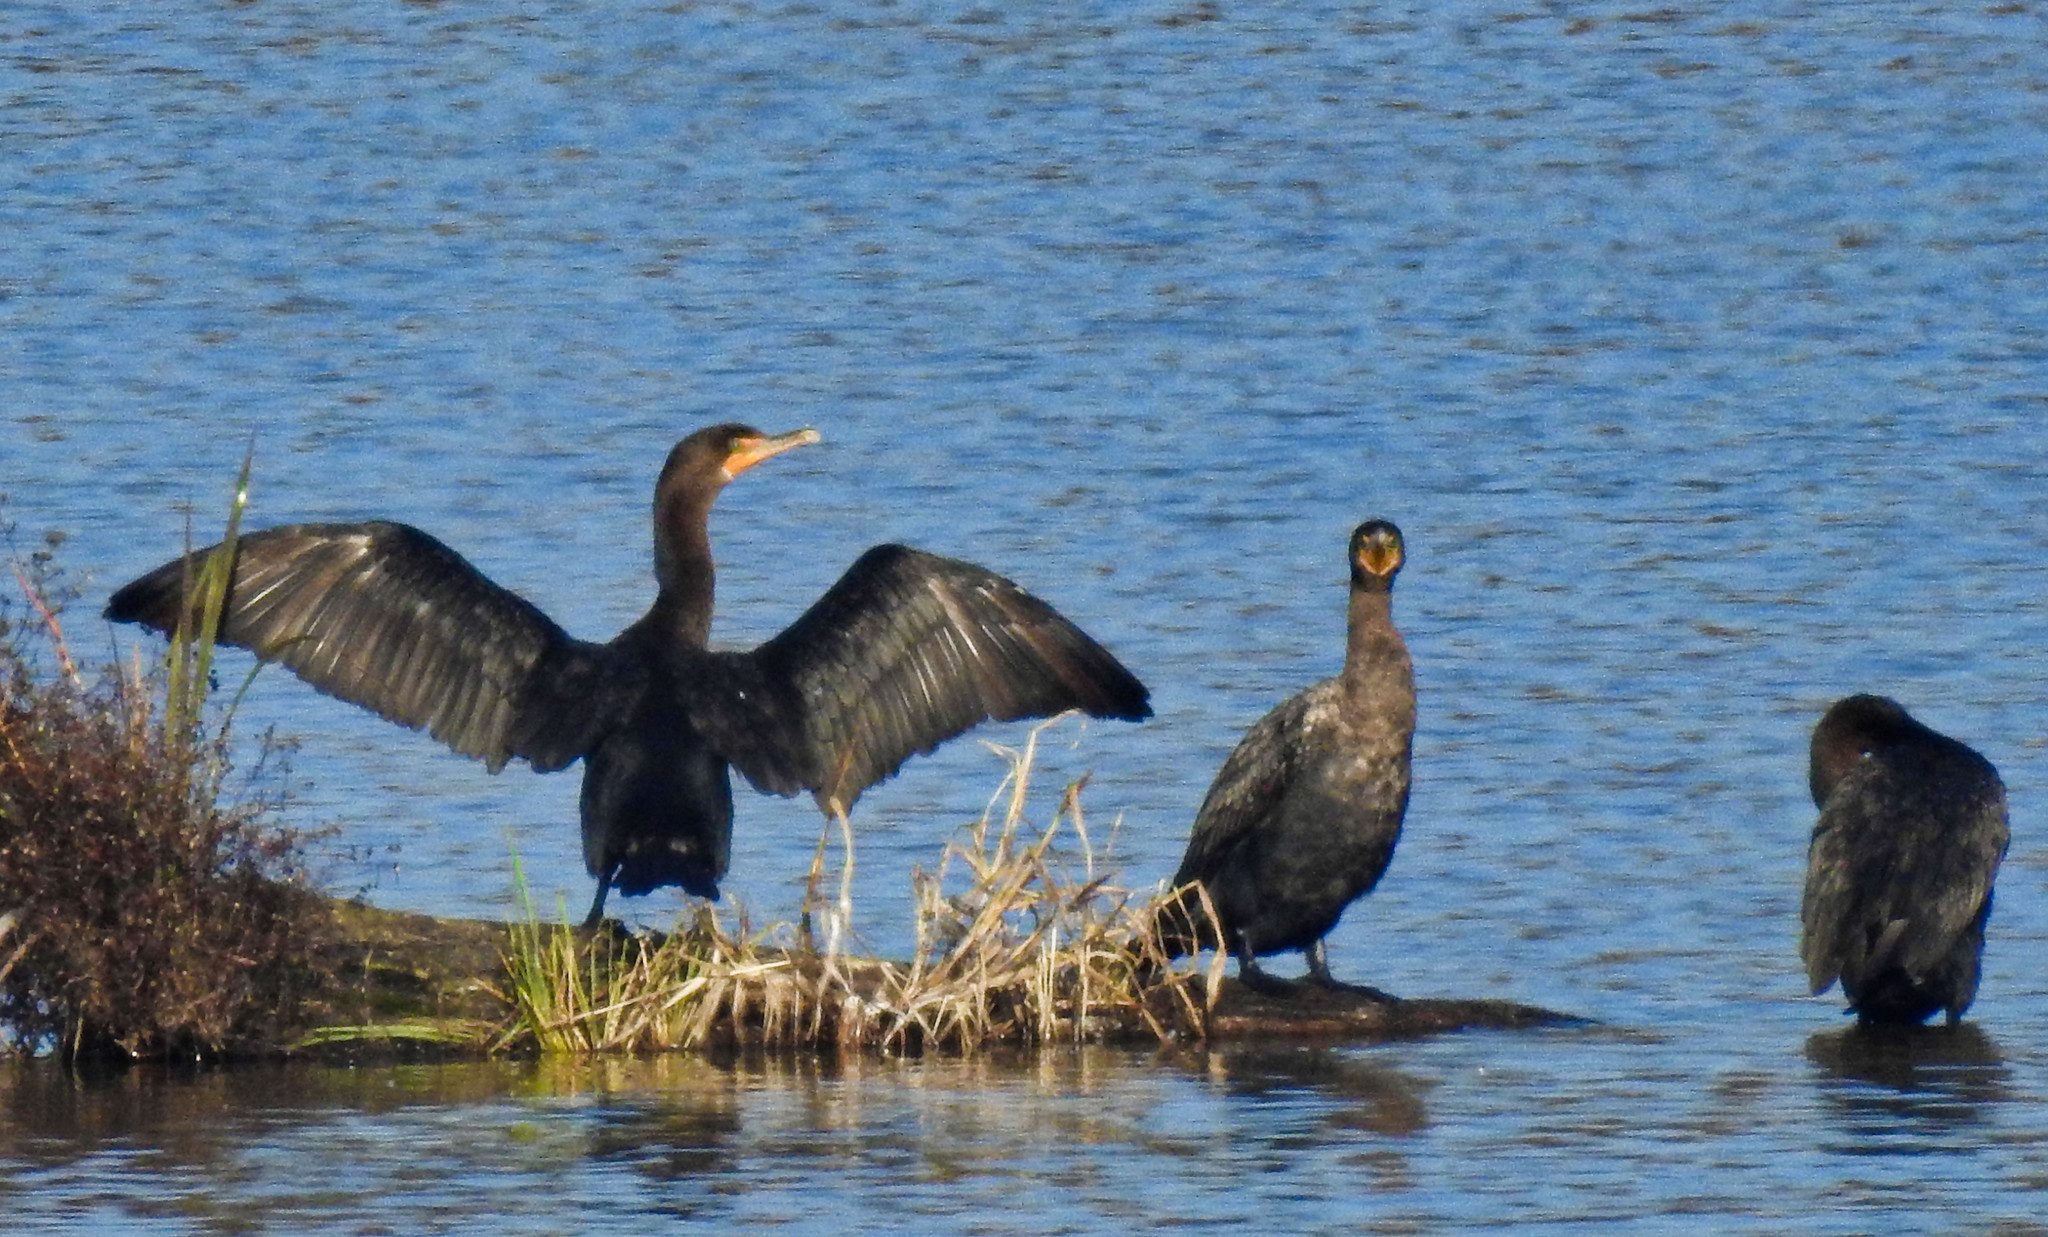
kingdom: Animalia
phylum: Chordata
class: Aves
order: Suliformes
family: Phalacrocoracidae
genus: Phalacrocorax
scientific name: Phalacrocorax auritus
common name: Double-crested cormorant
